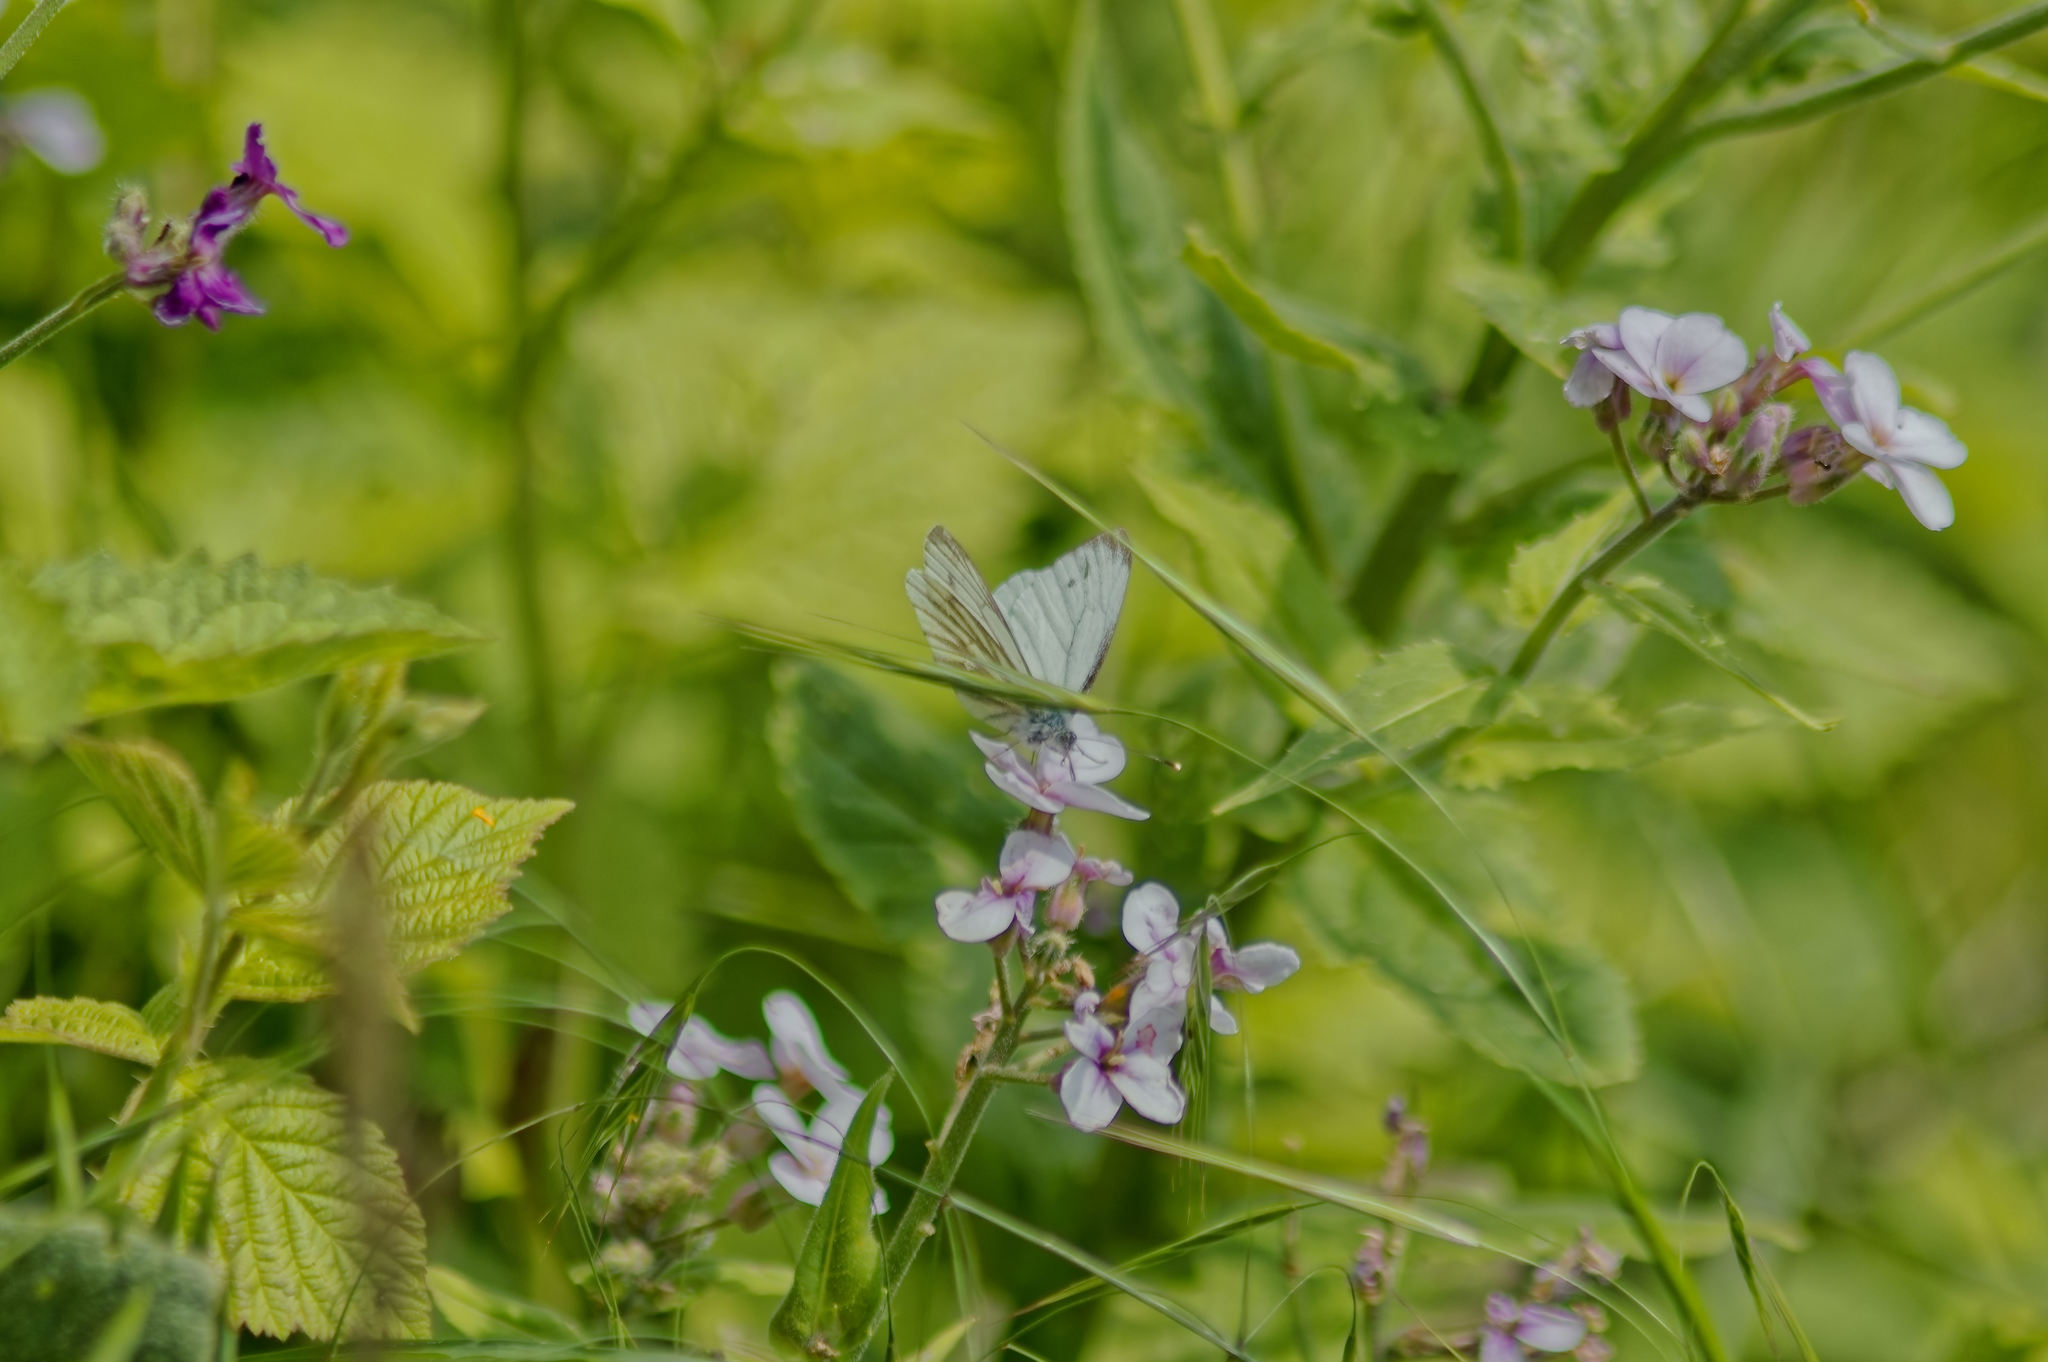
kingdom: Animalia
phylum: Arthropoda
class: Insecta
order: Lepidoptera
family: Pieridae
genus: Pieris
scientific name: Pieris napi
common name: Green-veined white
